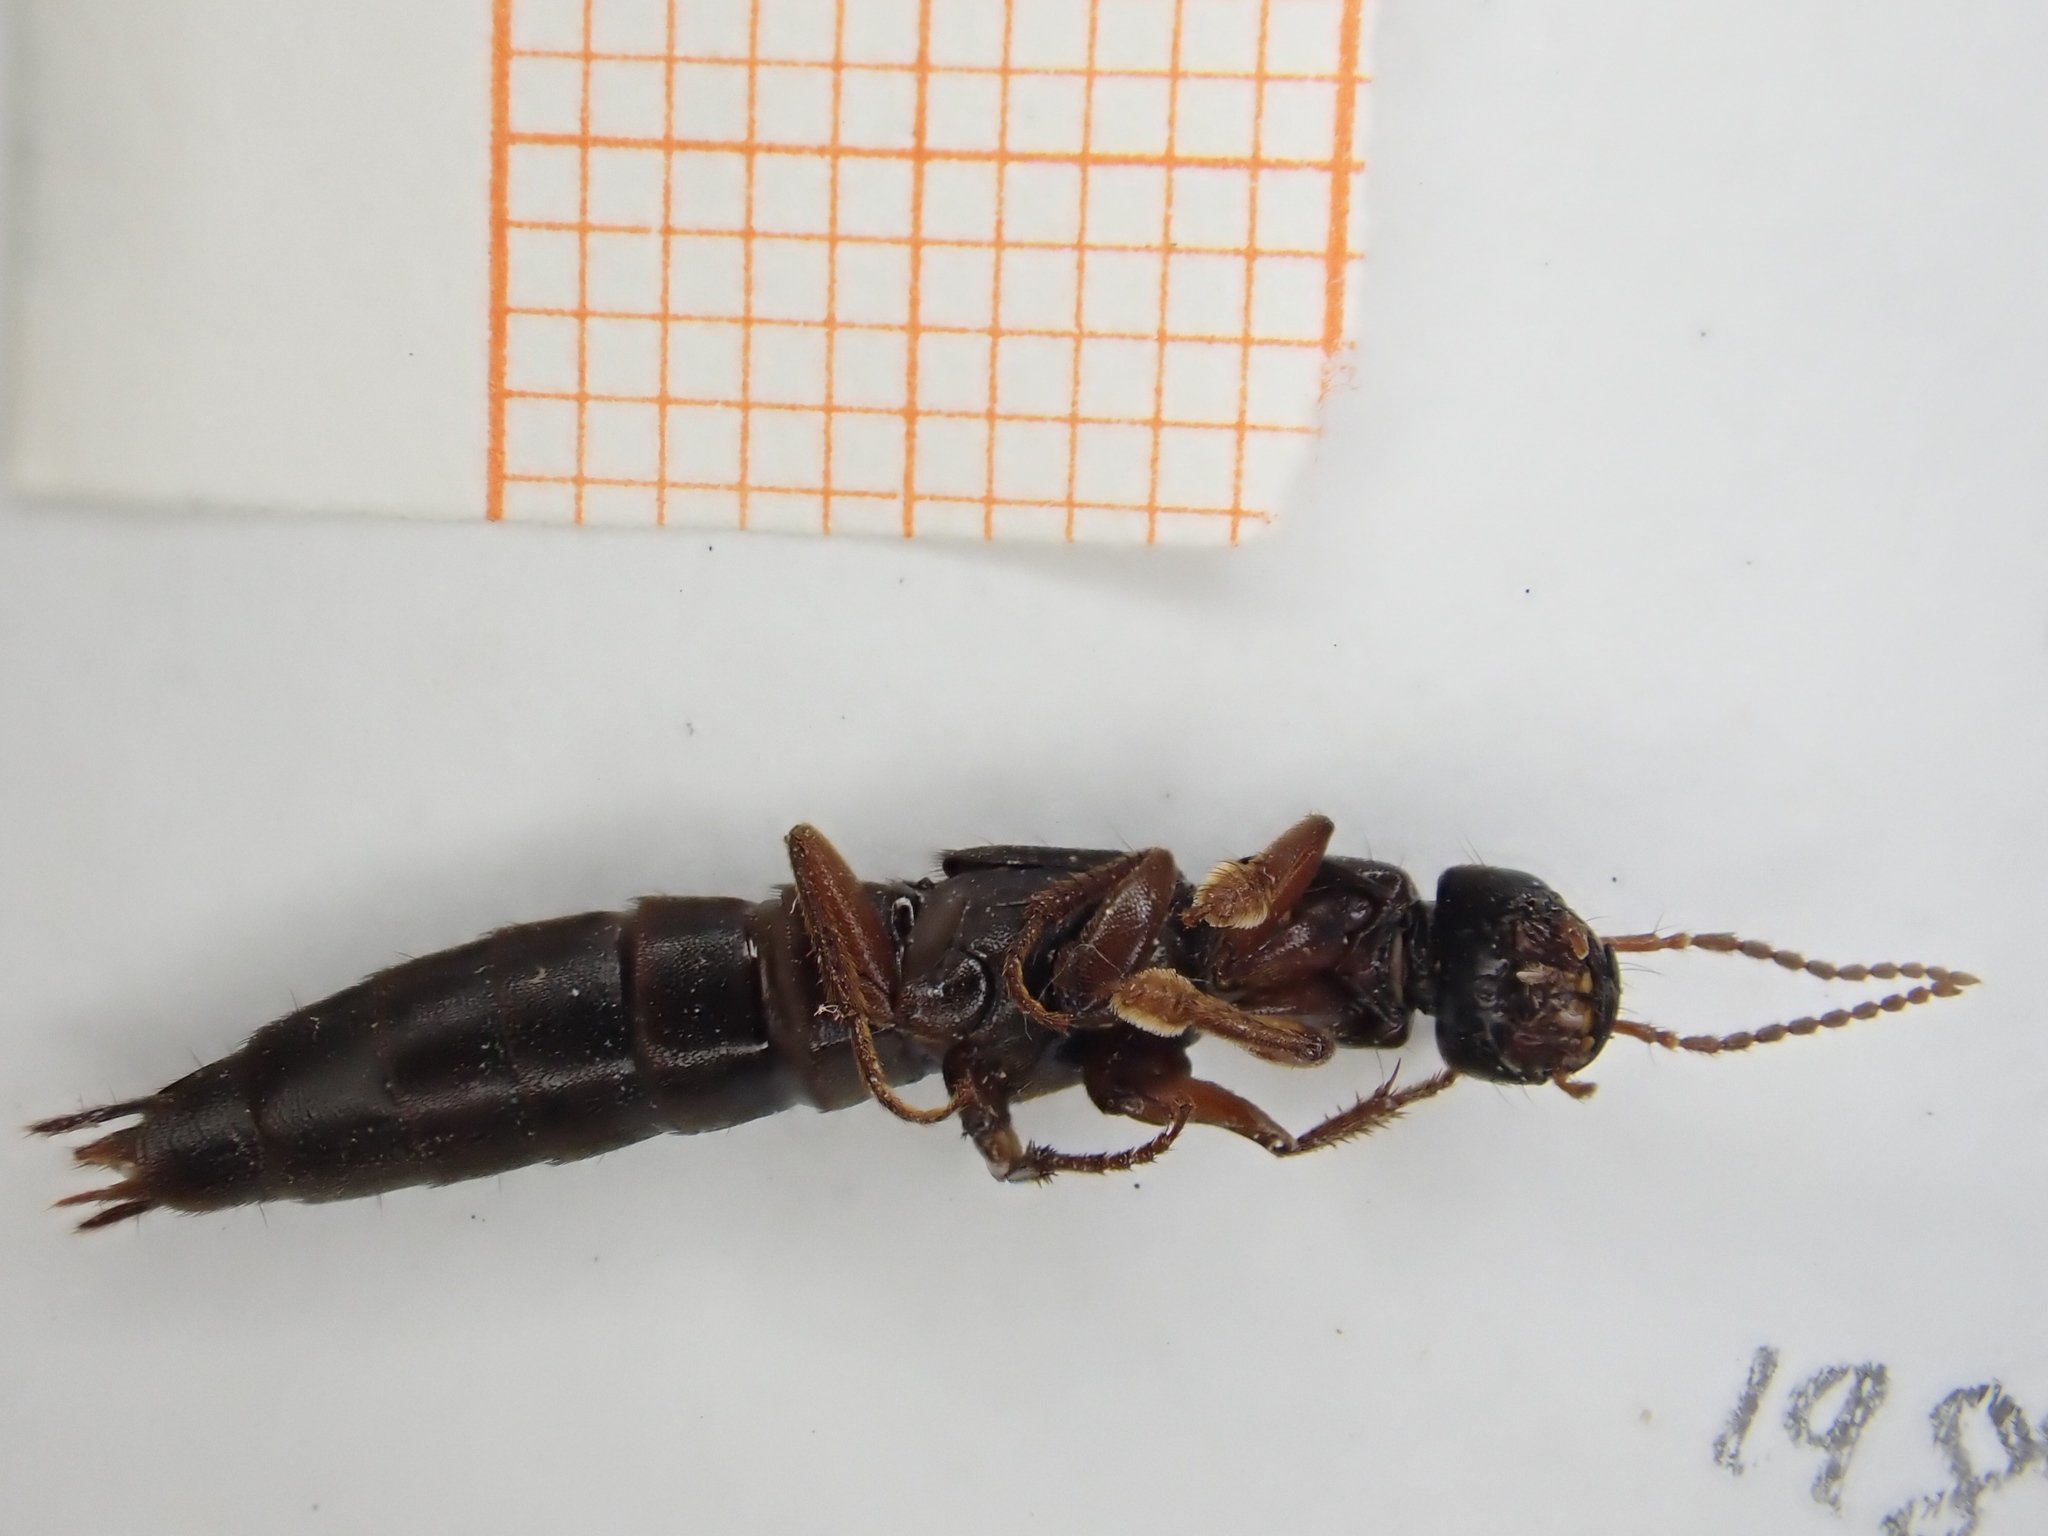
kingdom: Animalia
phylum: Arthropoda
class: Insecta
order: Coleoptera
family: Staphylinidae
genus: Tasgius
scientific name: Tasgius morsitans
